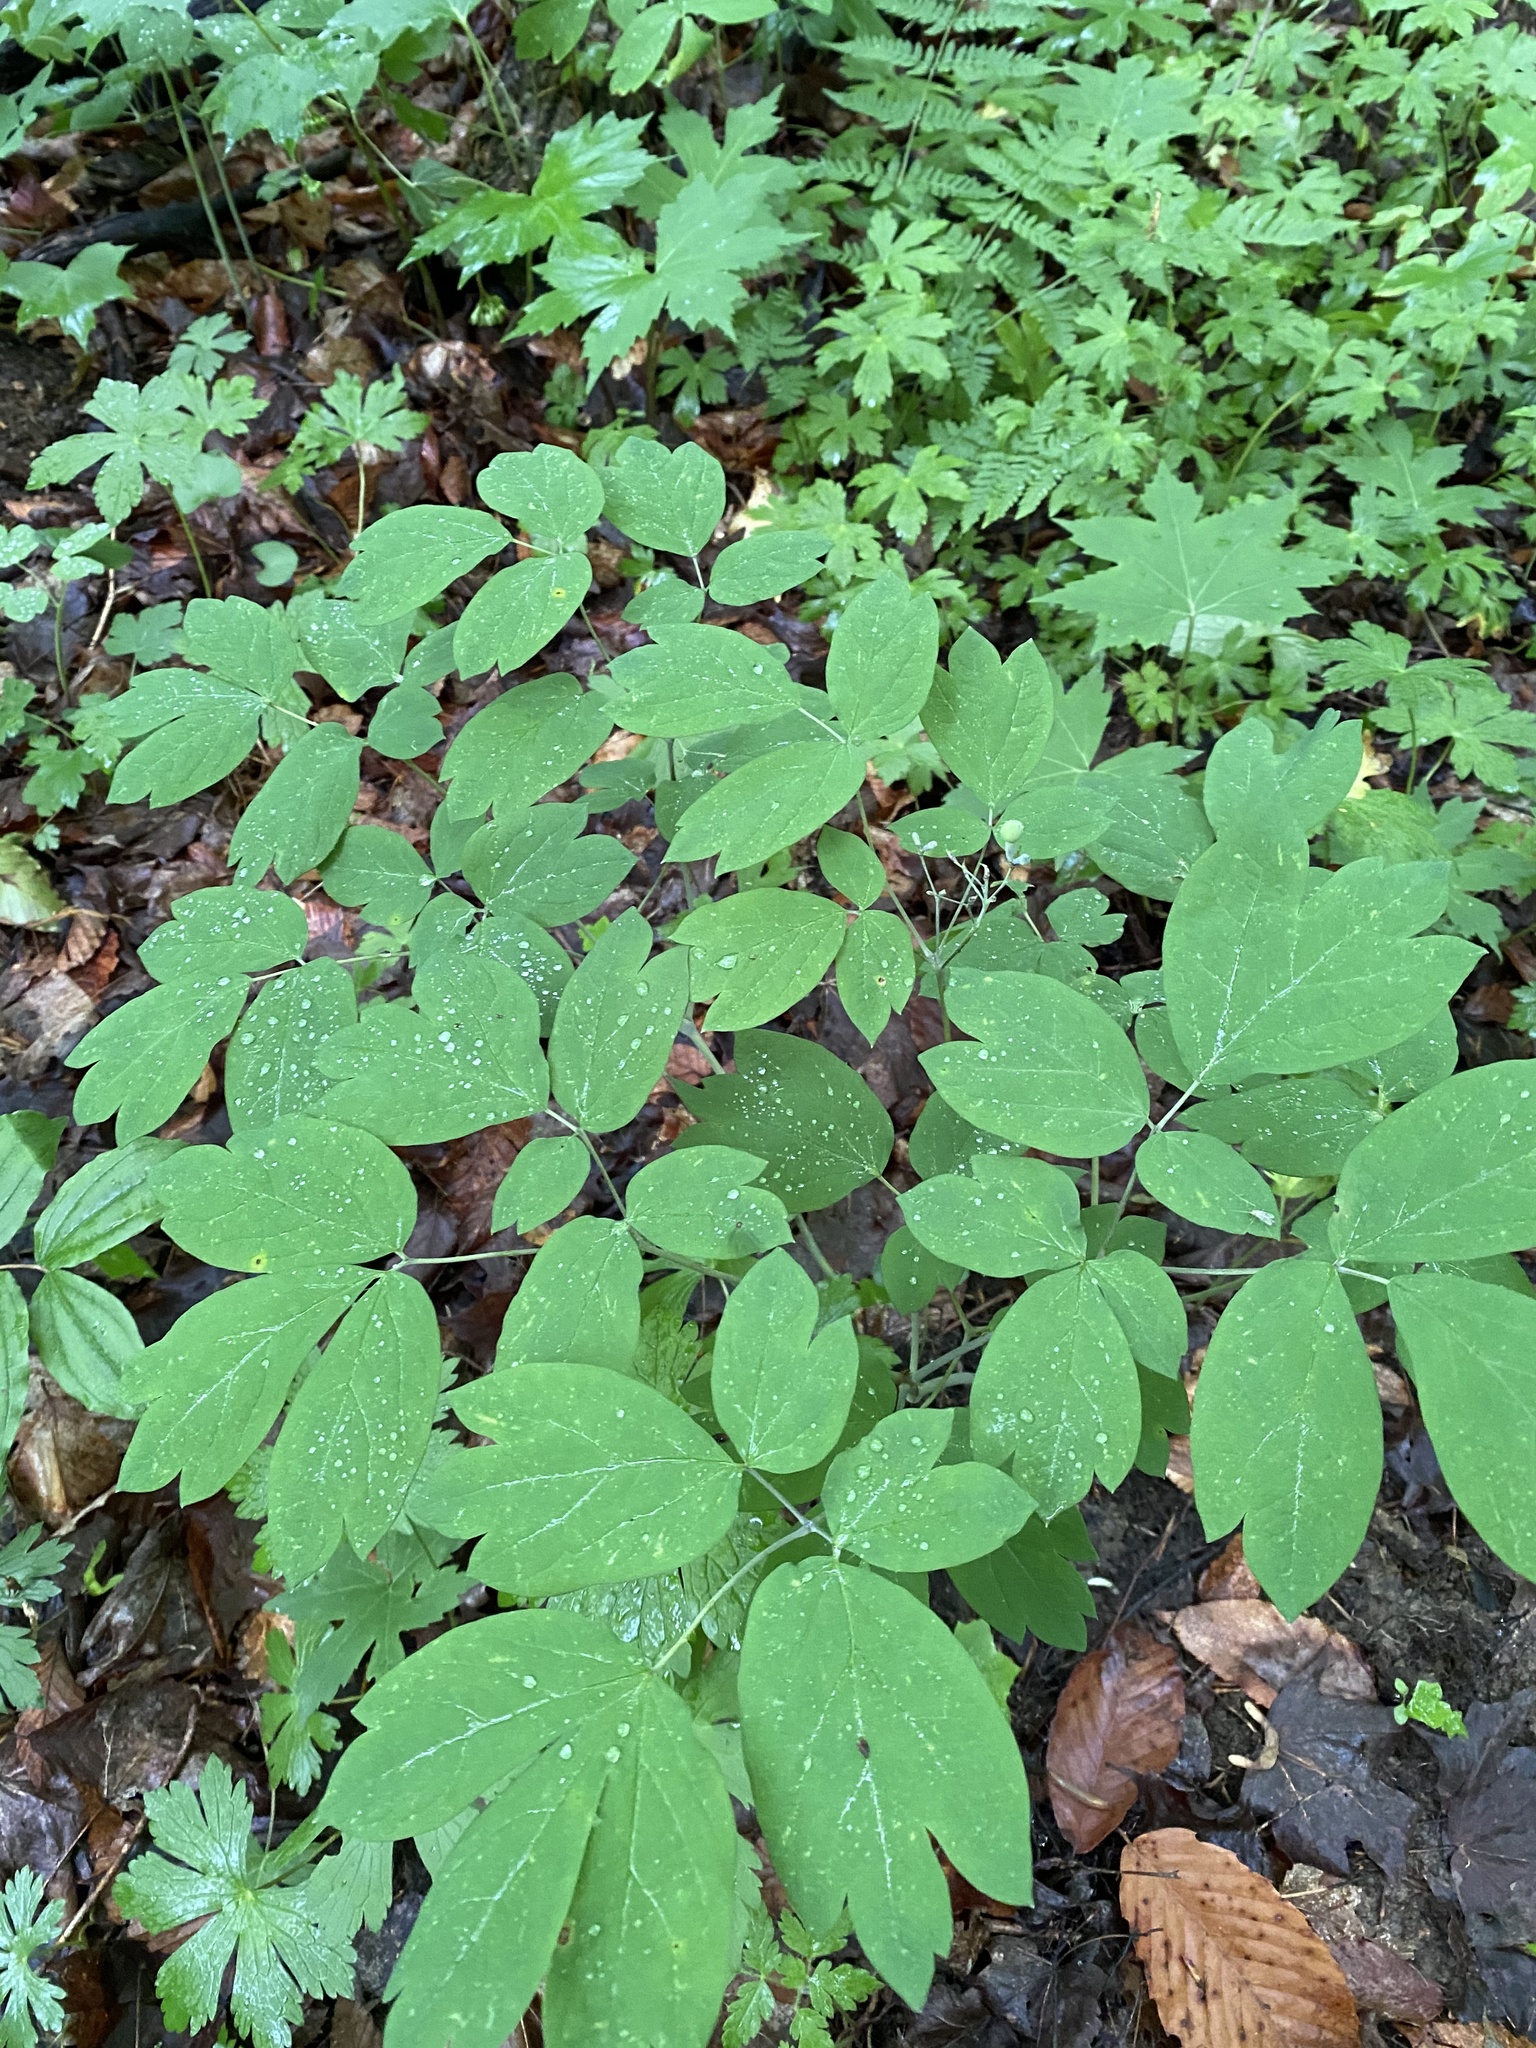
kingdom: Plantae
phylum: Tracheophyta
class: Magnoliopsida
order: Ranunculales
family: Berberidaceae
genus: Caulophyllum
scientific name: Caulophyllum thalictroides
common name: Blue cohosh
